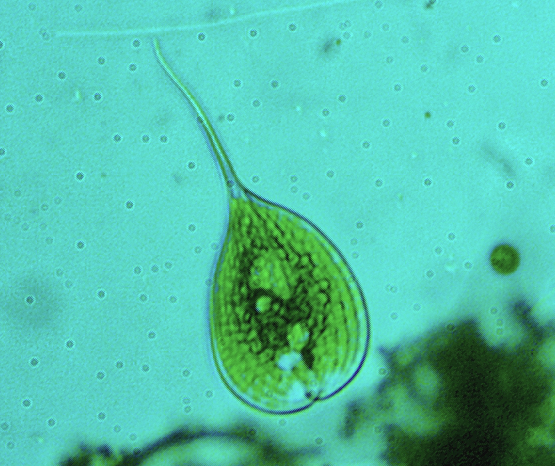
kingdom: Protozoa
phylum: Euglenozoa
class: Euglenoidea
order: Euglenida
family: Phacidae
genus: Phacus
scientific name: Phacus longicauda
